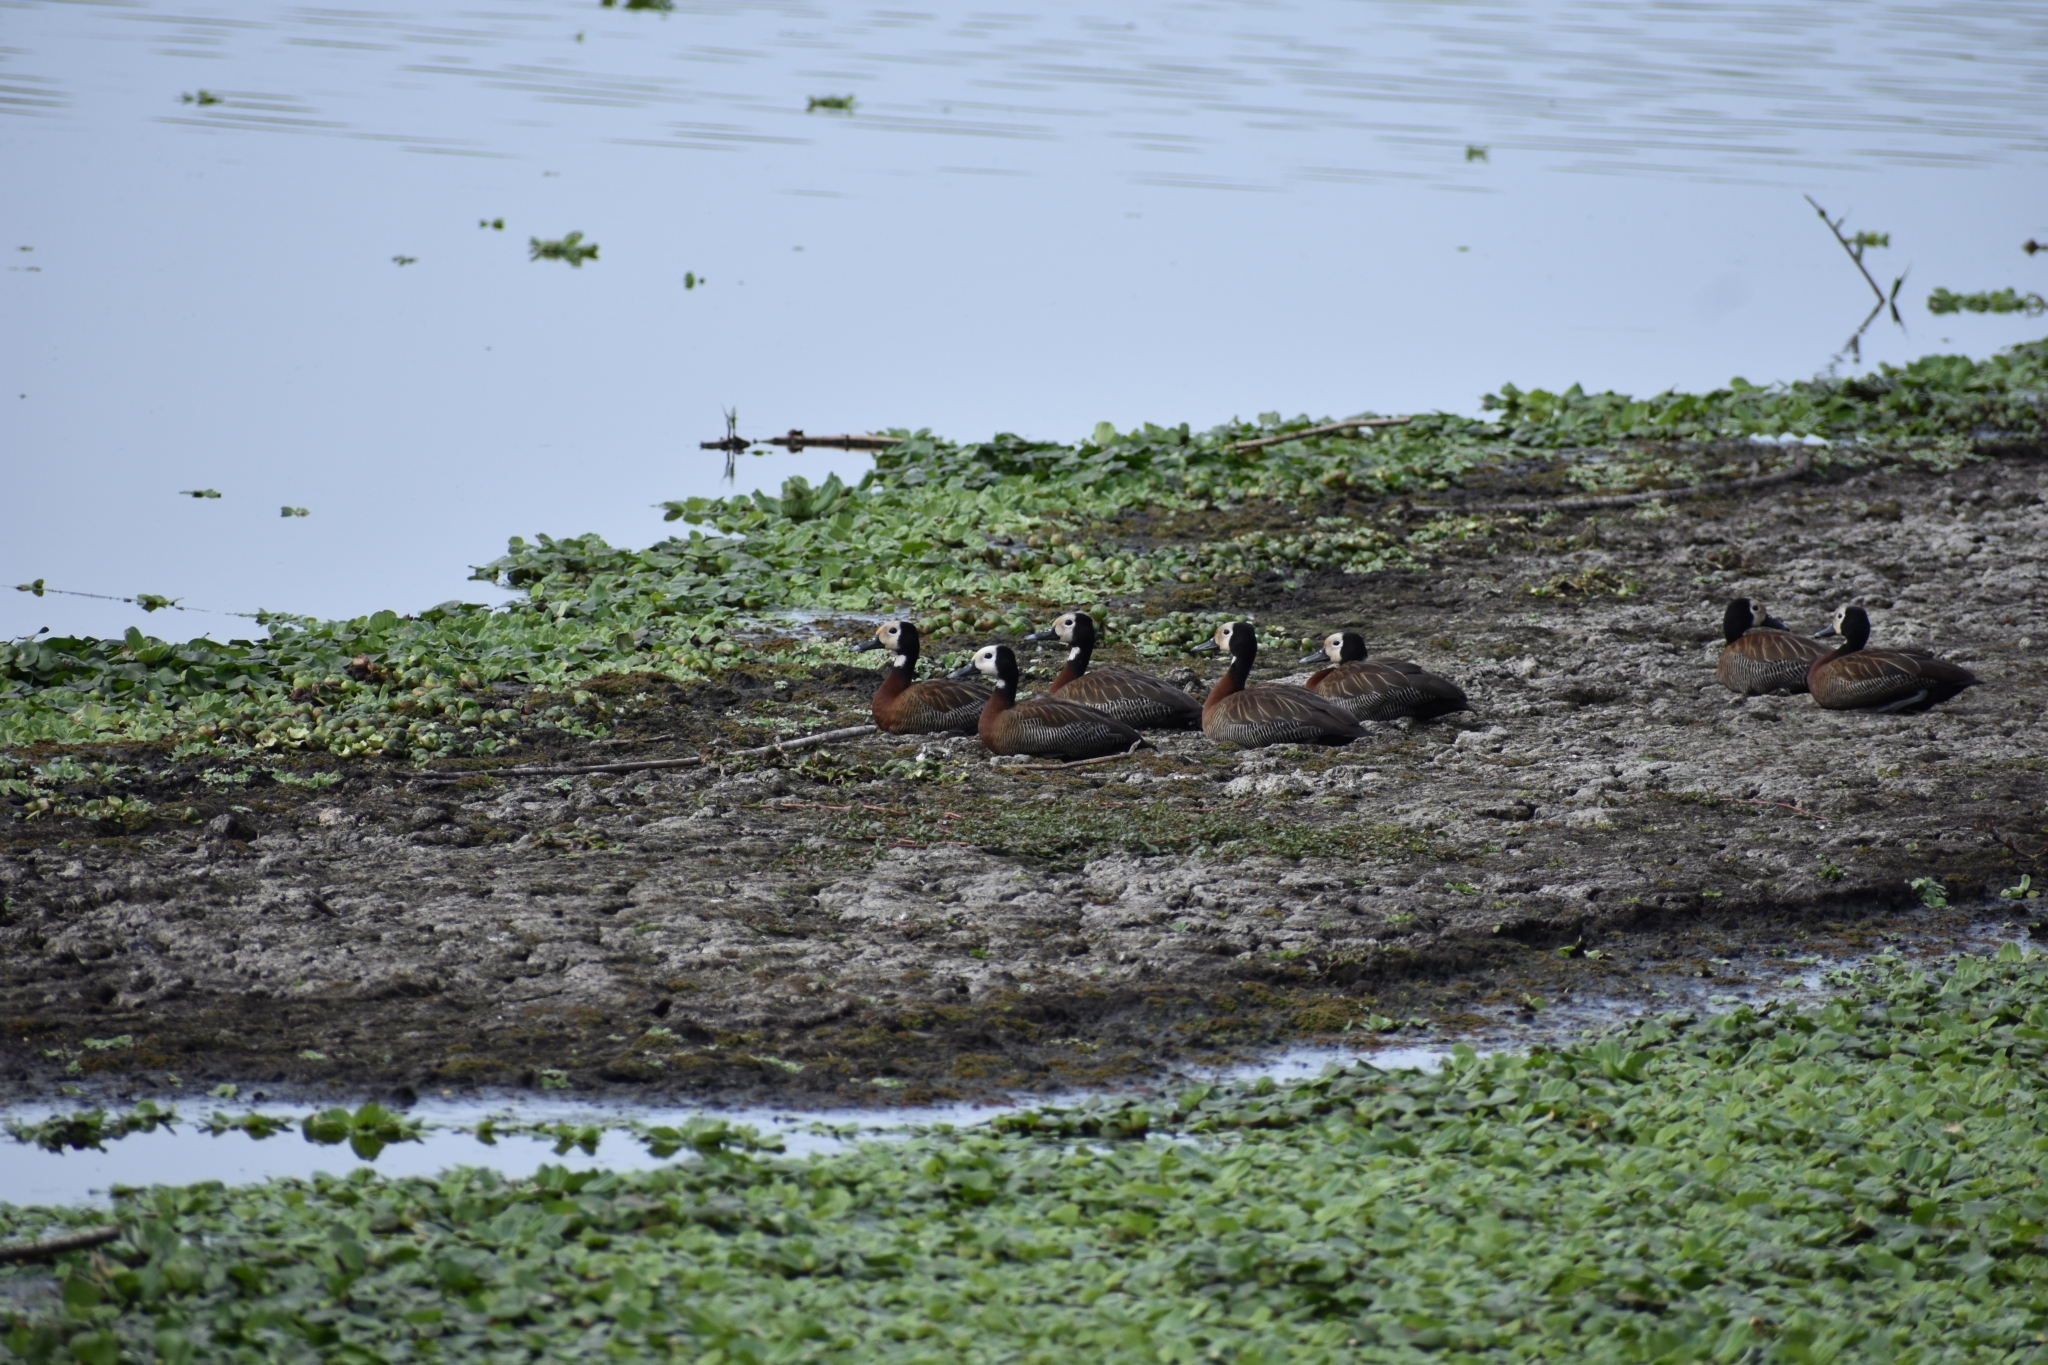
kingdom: Animalia
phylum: Chordata
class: Aves
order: Anseriformes
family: Anatidae
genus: Dendrocygna
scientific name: Dendrocygna viduata
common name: White-faced whistling duck
